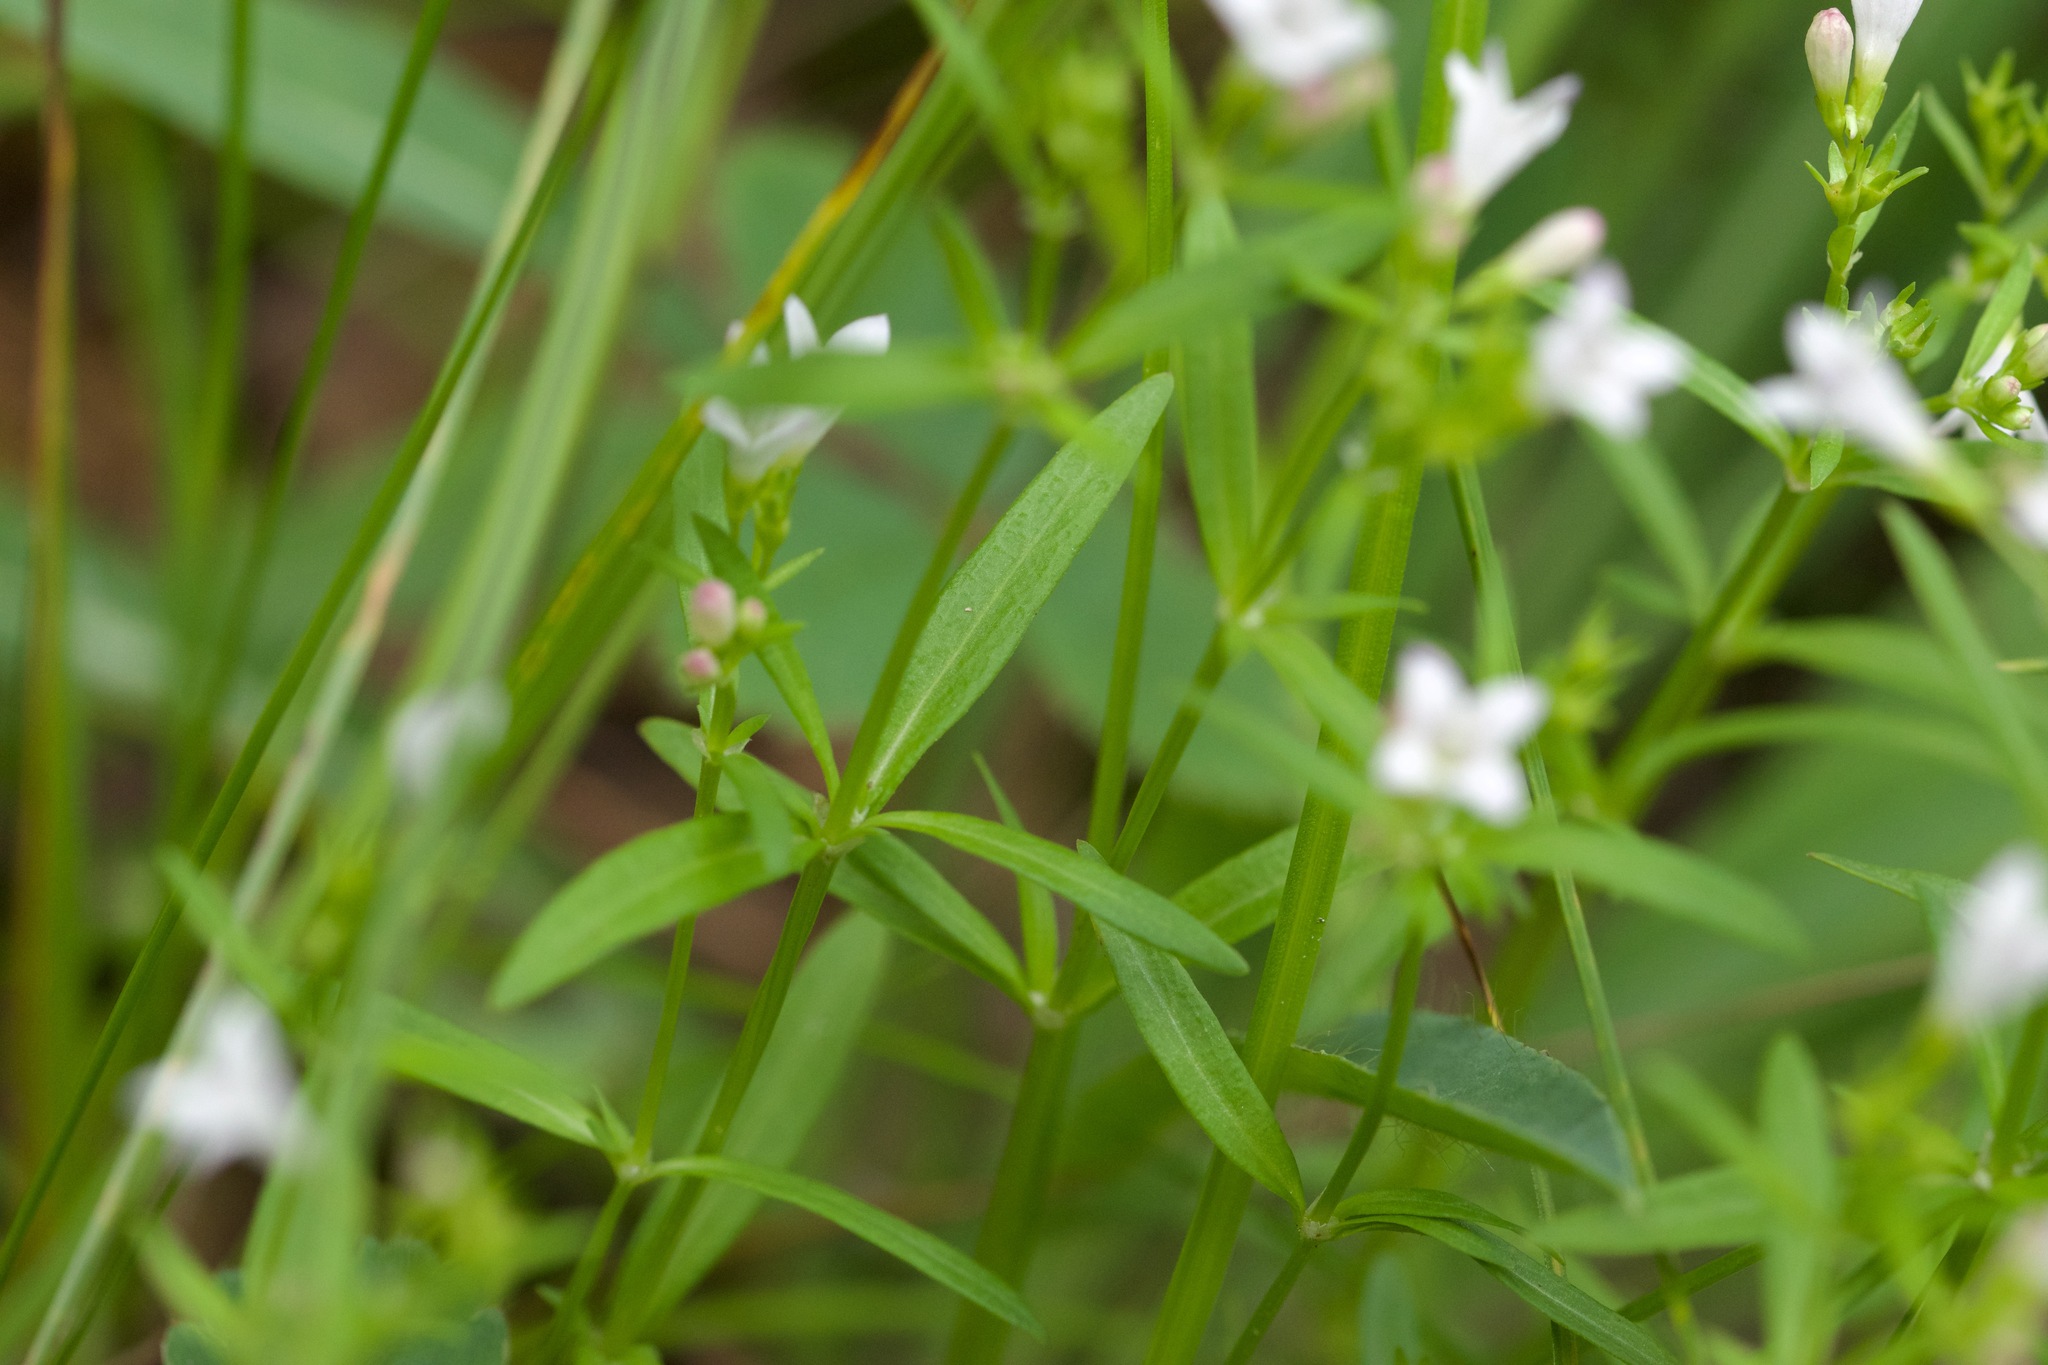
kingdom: Plantae
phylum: Tracheophyta
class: Magnoliopsida
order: Gentianales
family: Rubiaceae
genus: Houstonia
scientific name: Houstonia longifolia
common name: Long-leaved bluets
